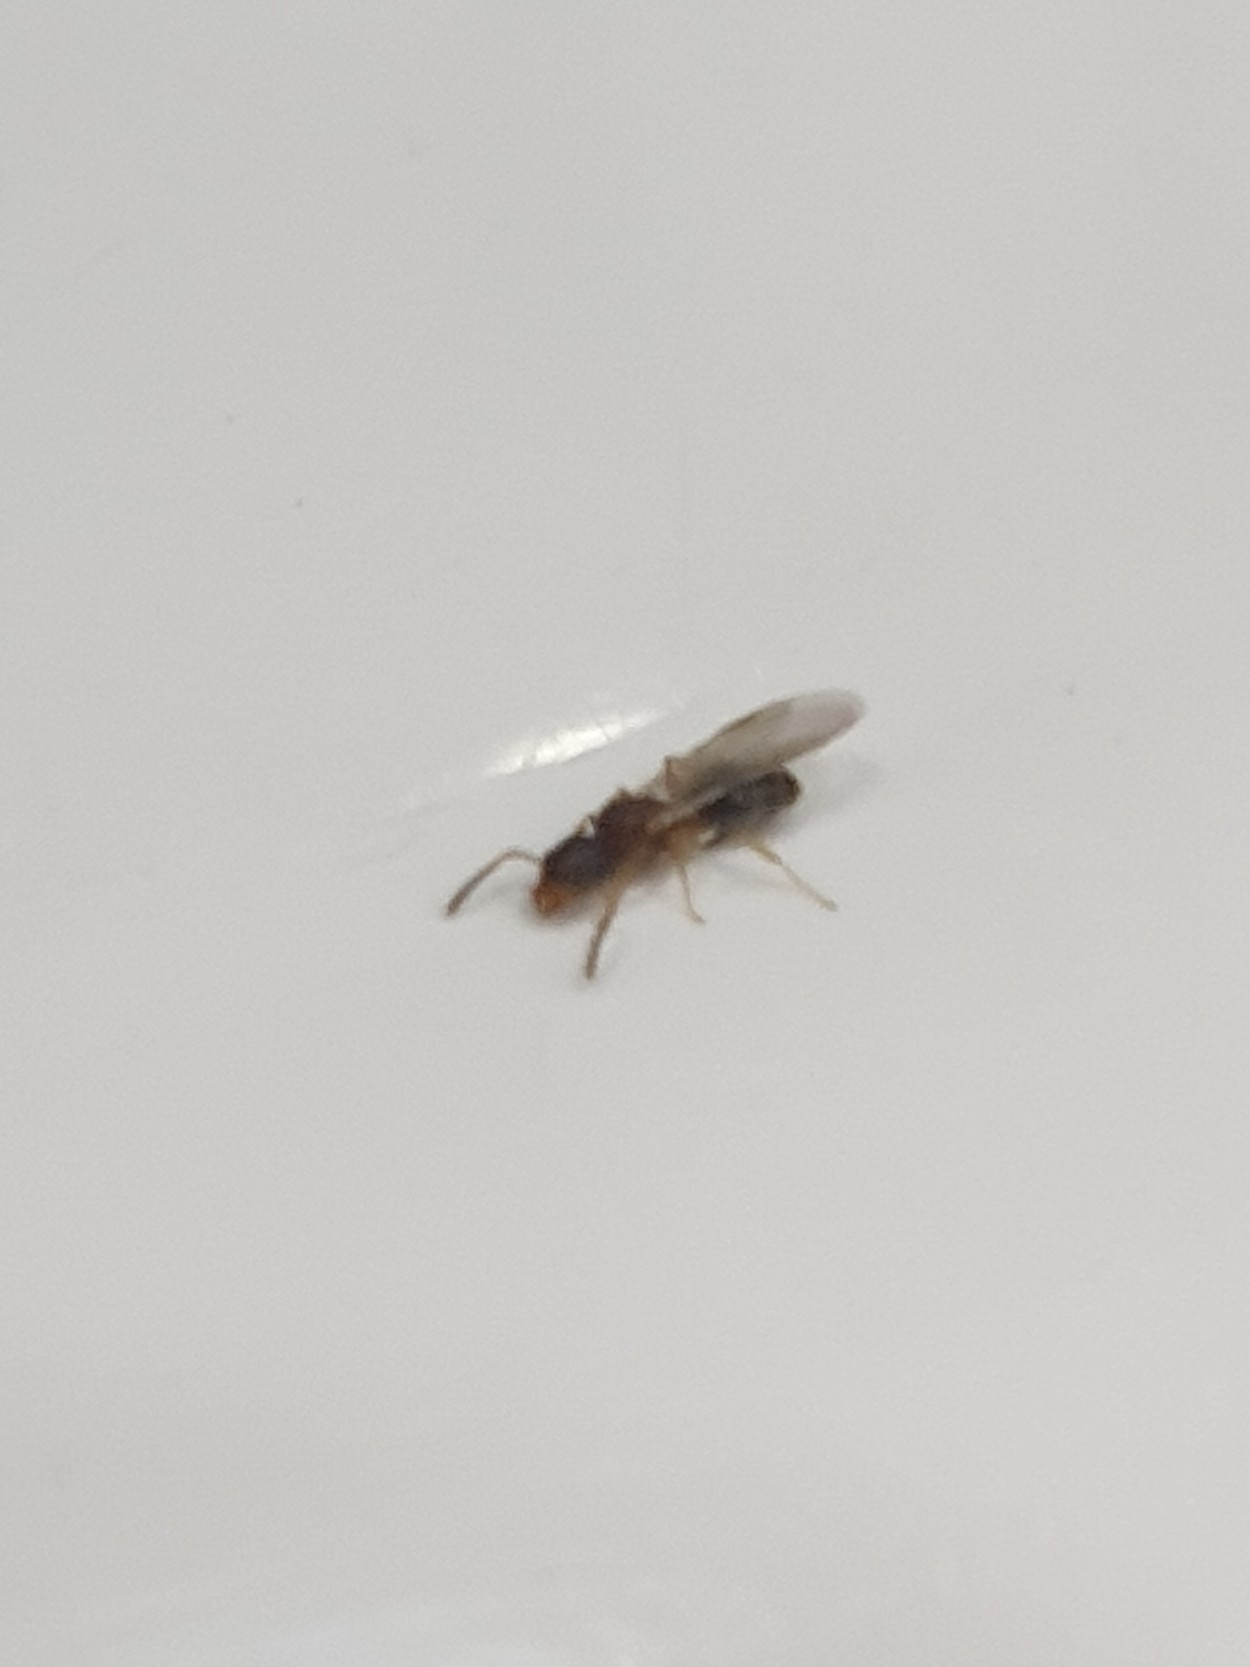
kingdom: Animalia
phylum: Arthropoda
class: Insecta
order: Hymenoptera
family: Formicidae
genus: Technomyrmex
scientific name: Technomyrmex gibbosus
